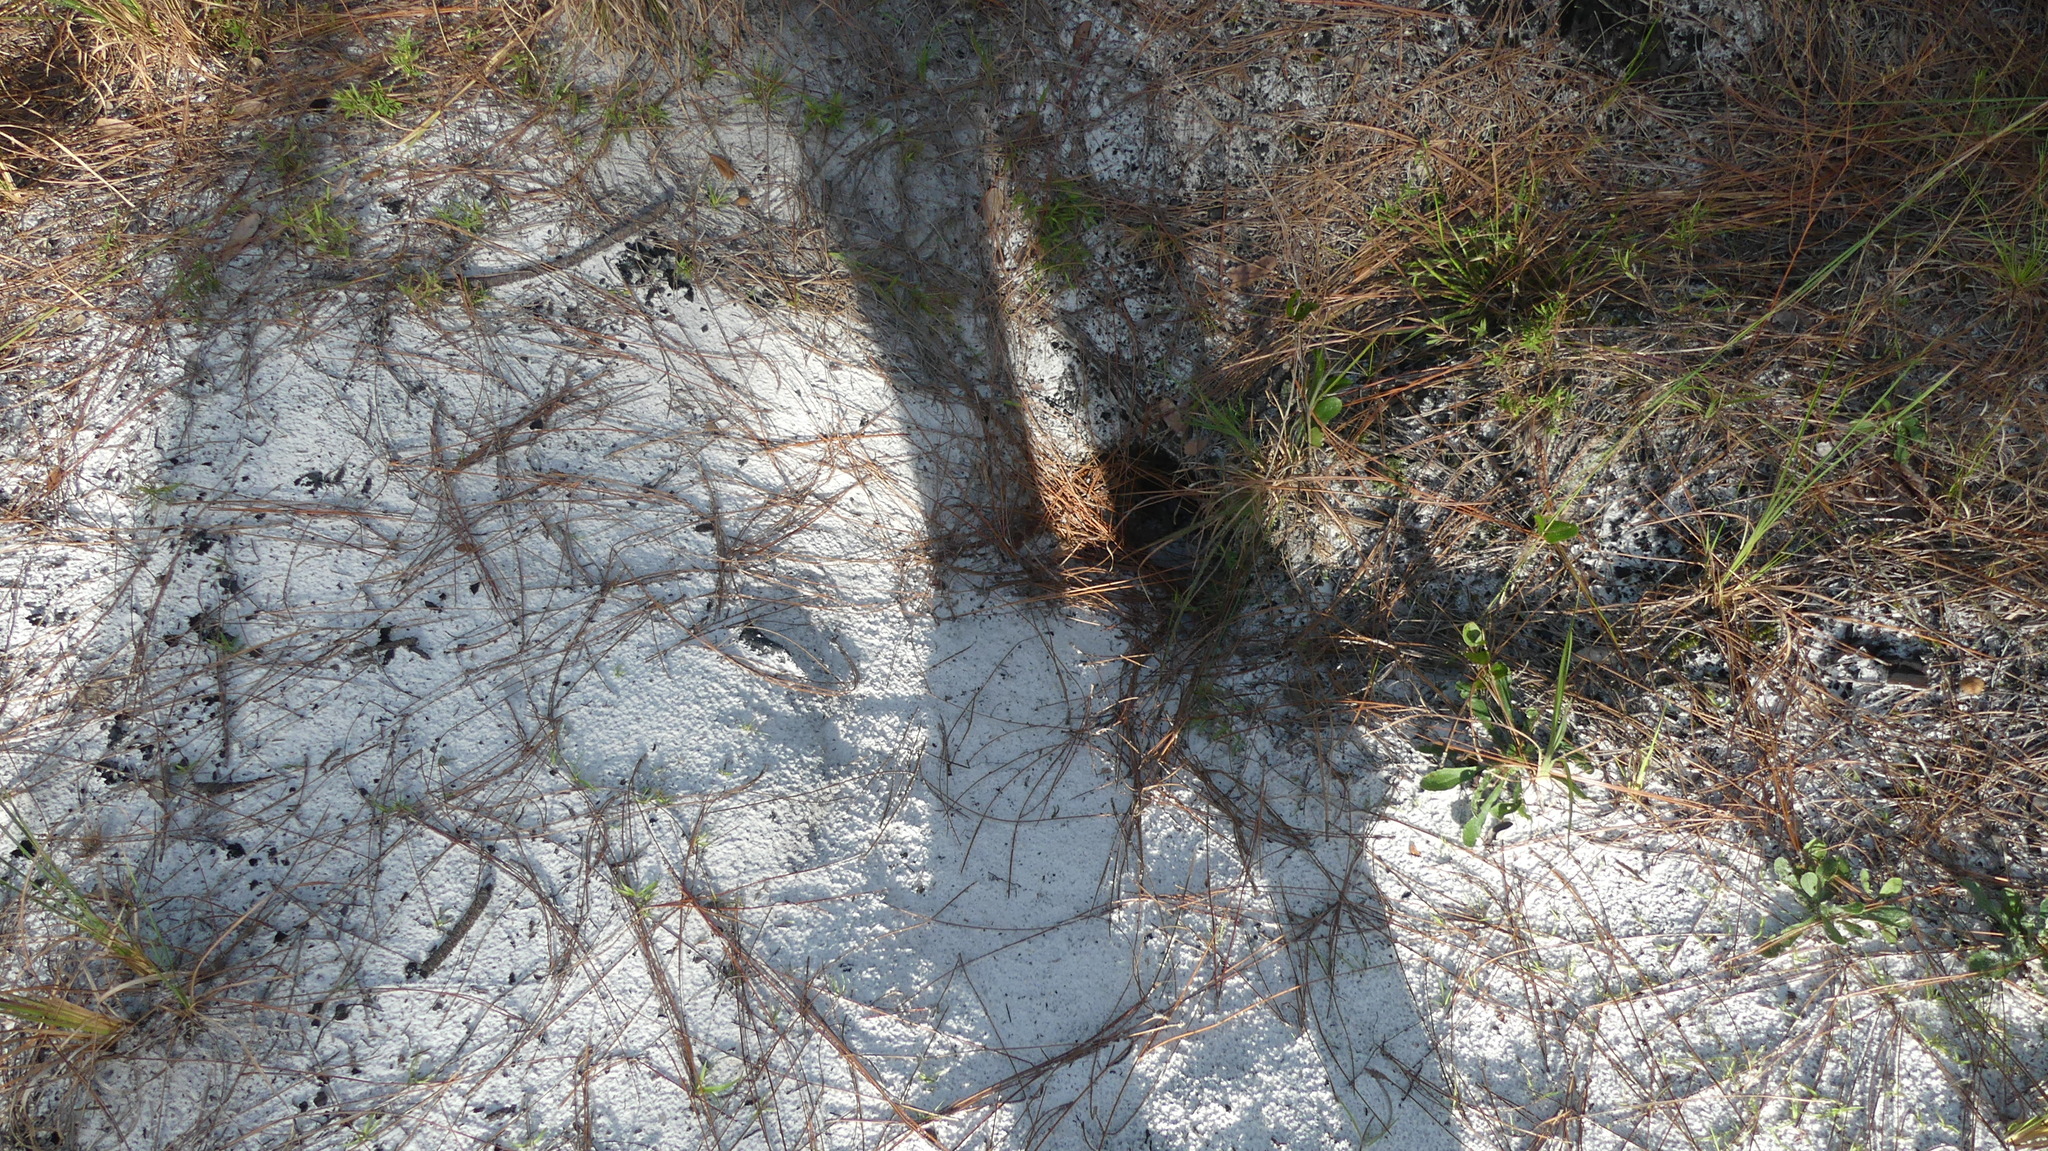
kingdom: Animalia
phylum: Chordata
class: Testudines
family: Testudinidae
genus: Gopherus
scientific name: Gopherus polyphemus
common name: Florida gopher tortoise
